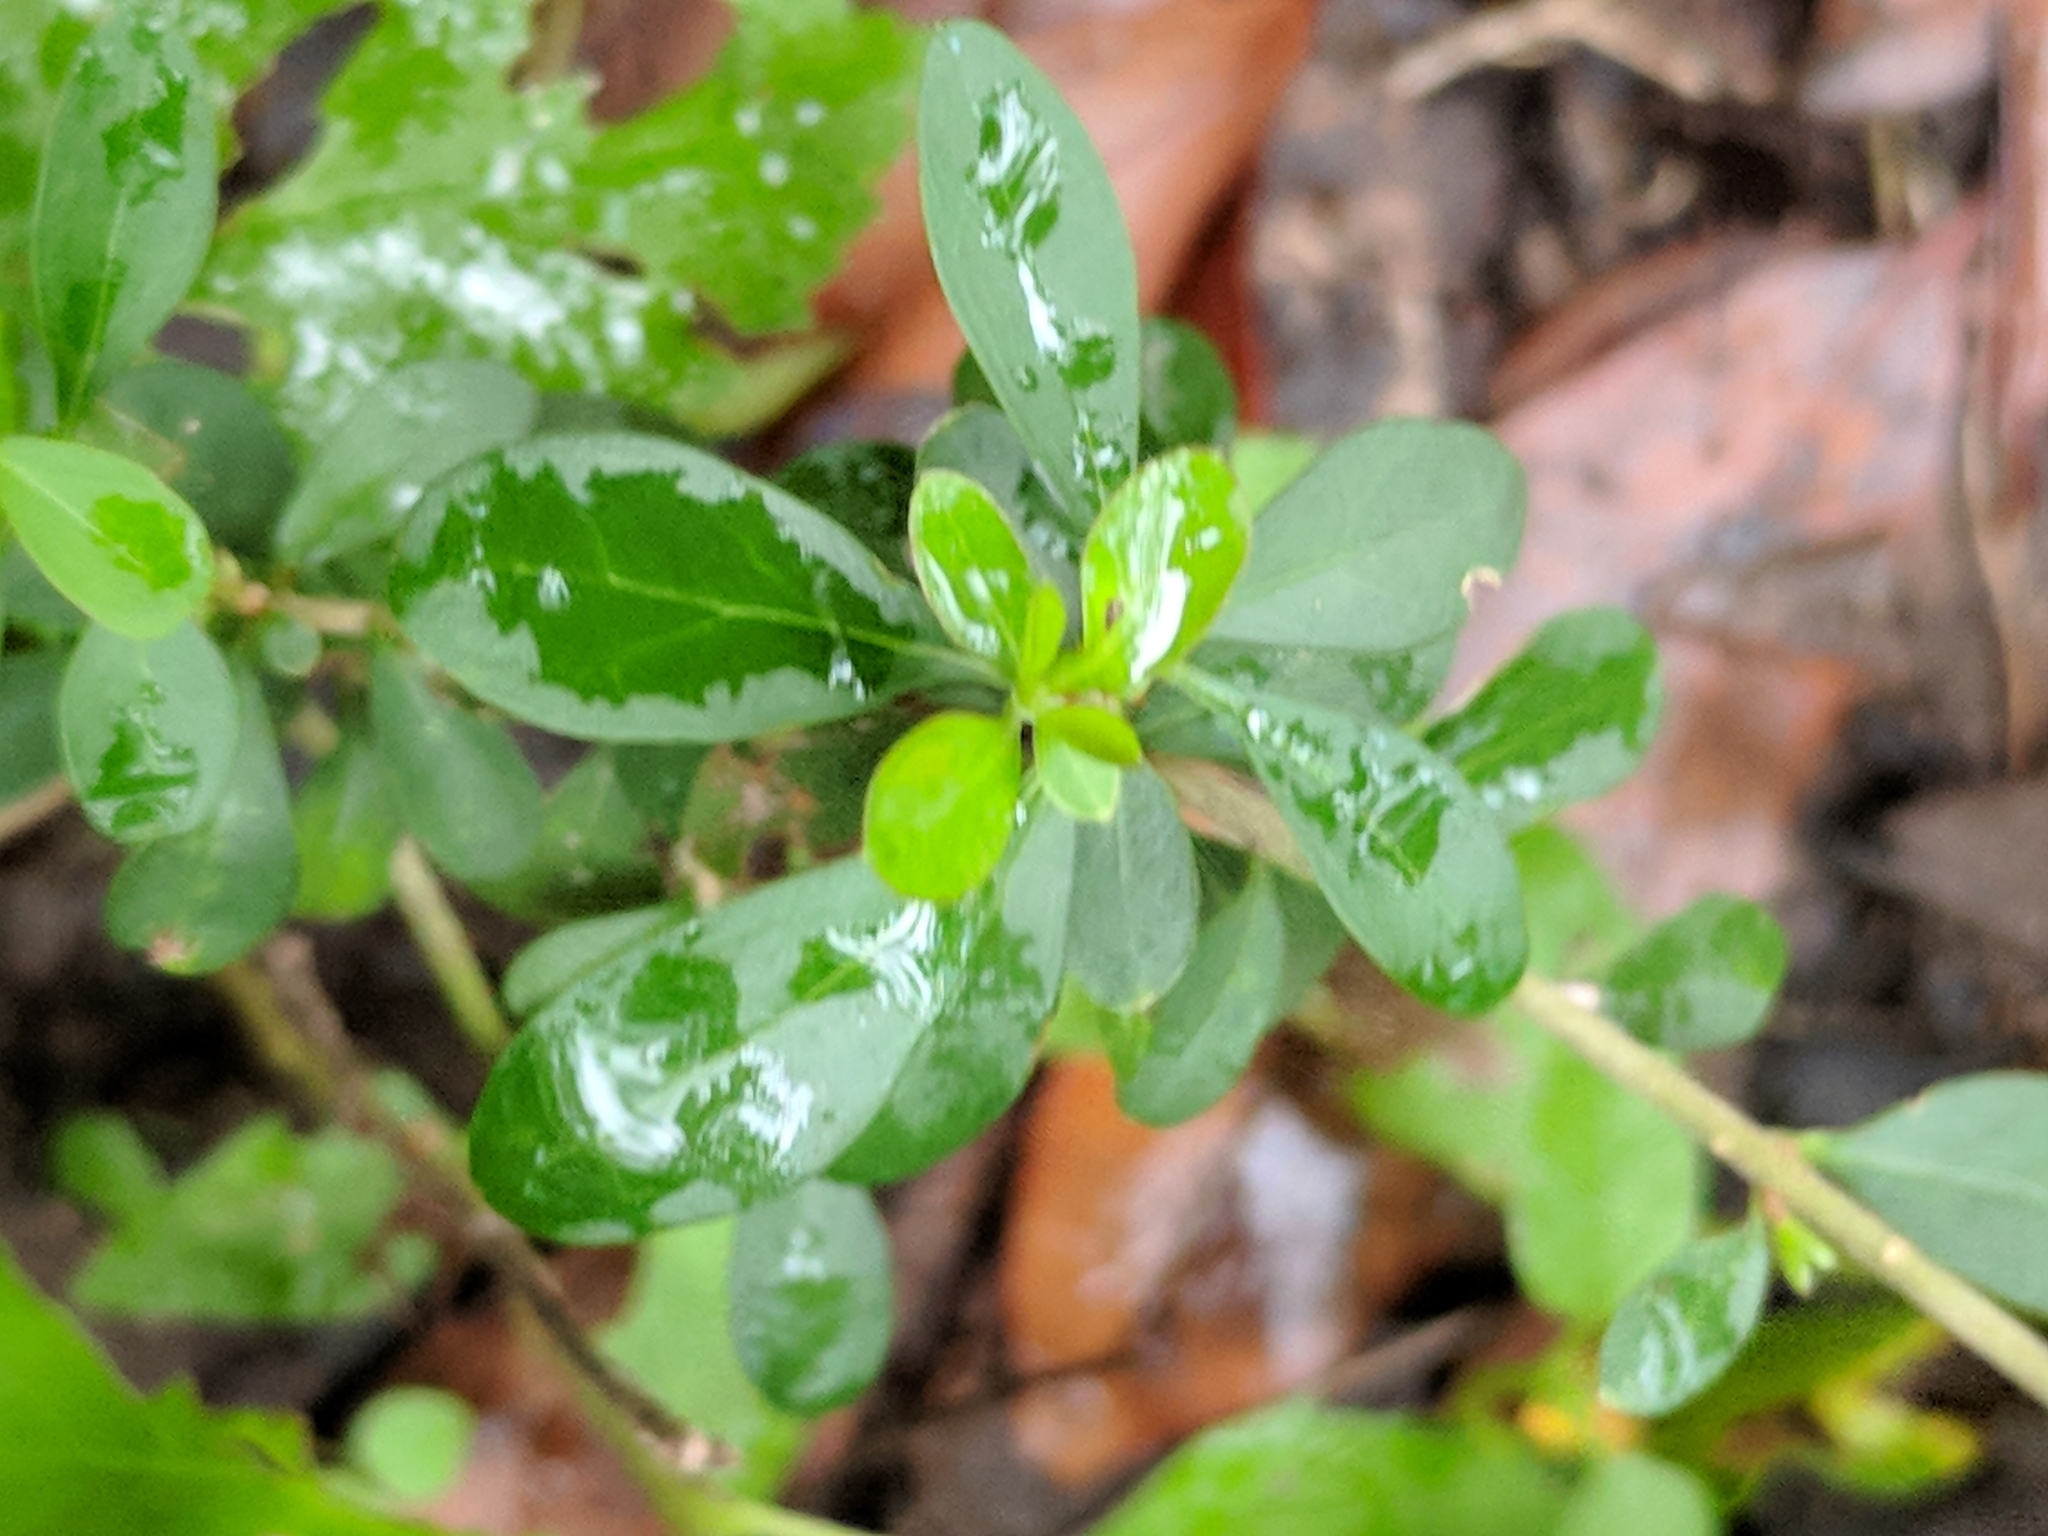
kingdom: Plantae
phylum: Tracheophyta
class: Magnoliopsida
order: Lamiales
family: Oleaceae
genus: Ligustrum
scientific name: Ligustrum quihoui
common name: Waxyleaf privet
